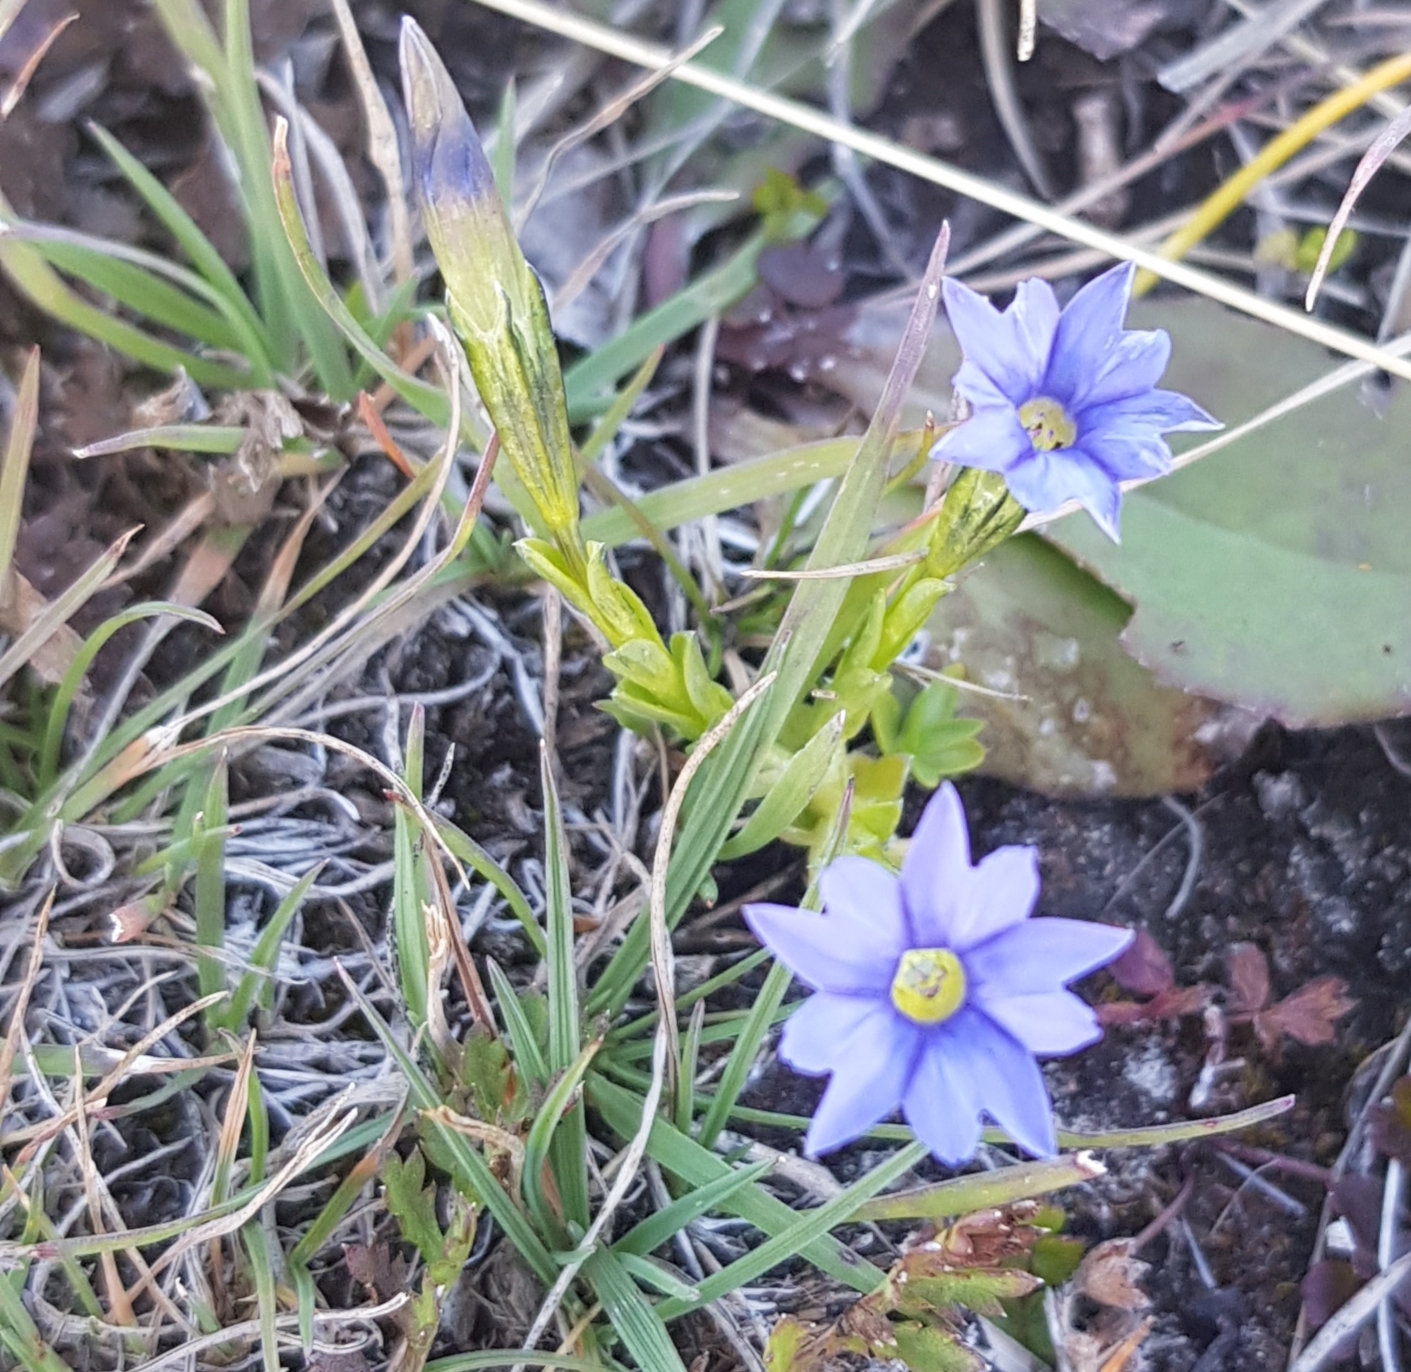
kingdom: Plantae
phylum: Tracheophyta
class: Magnoliopsida
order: Gentianales
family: Gentianaceae
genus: Gentiana
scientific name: Gentiana prostrata
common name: Moss gentian
